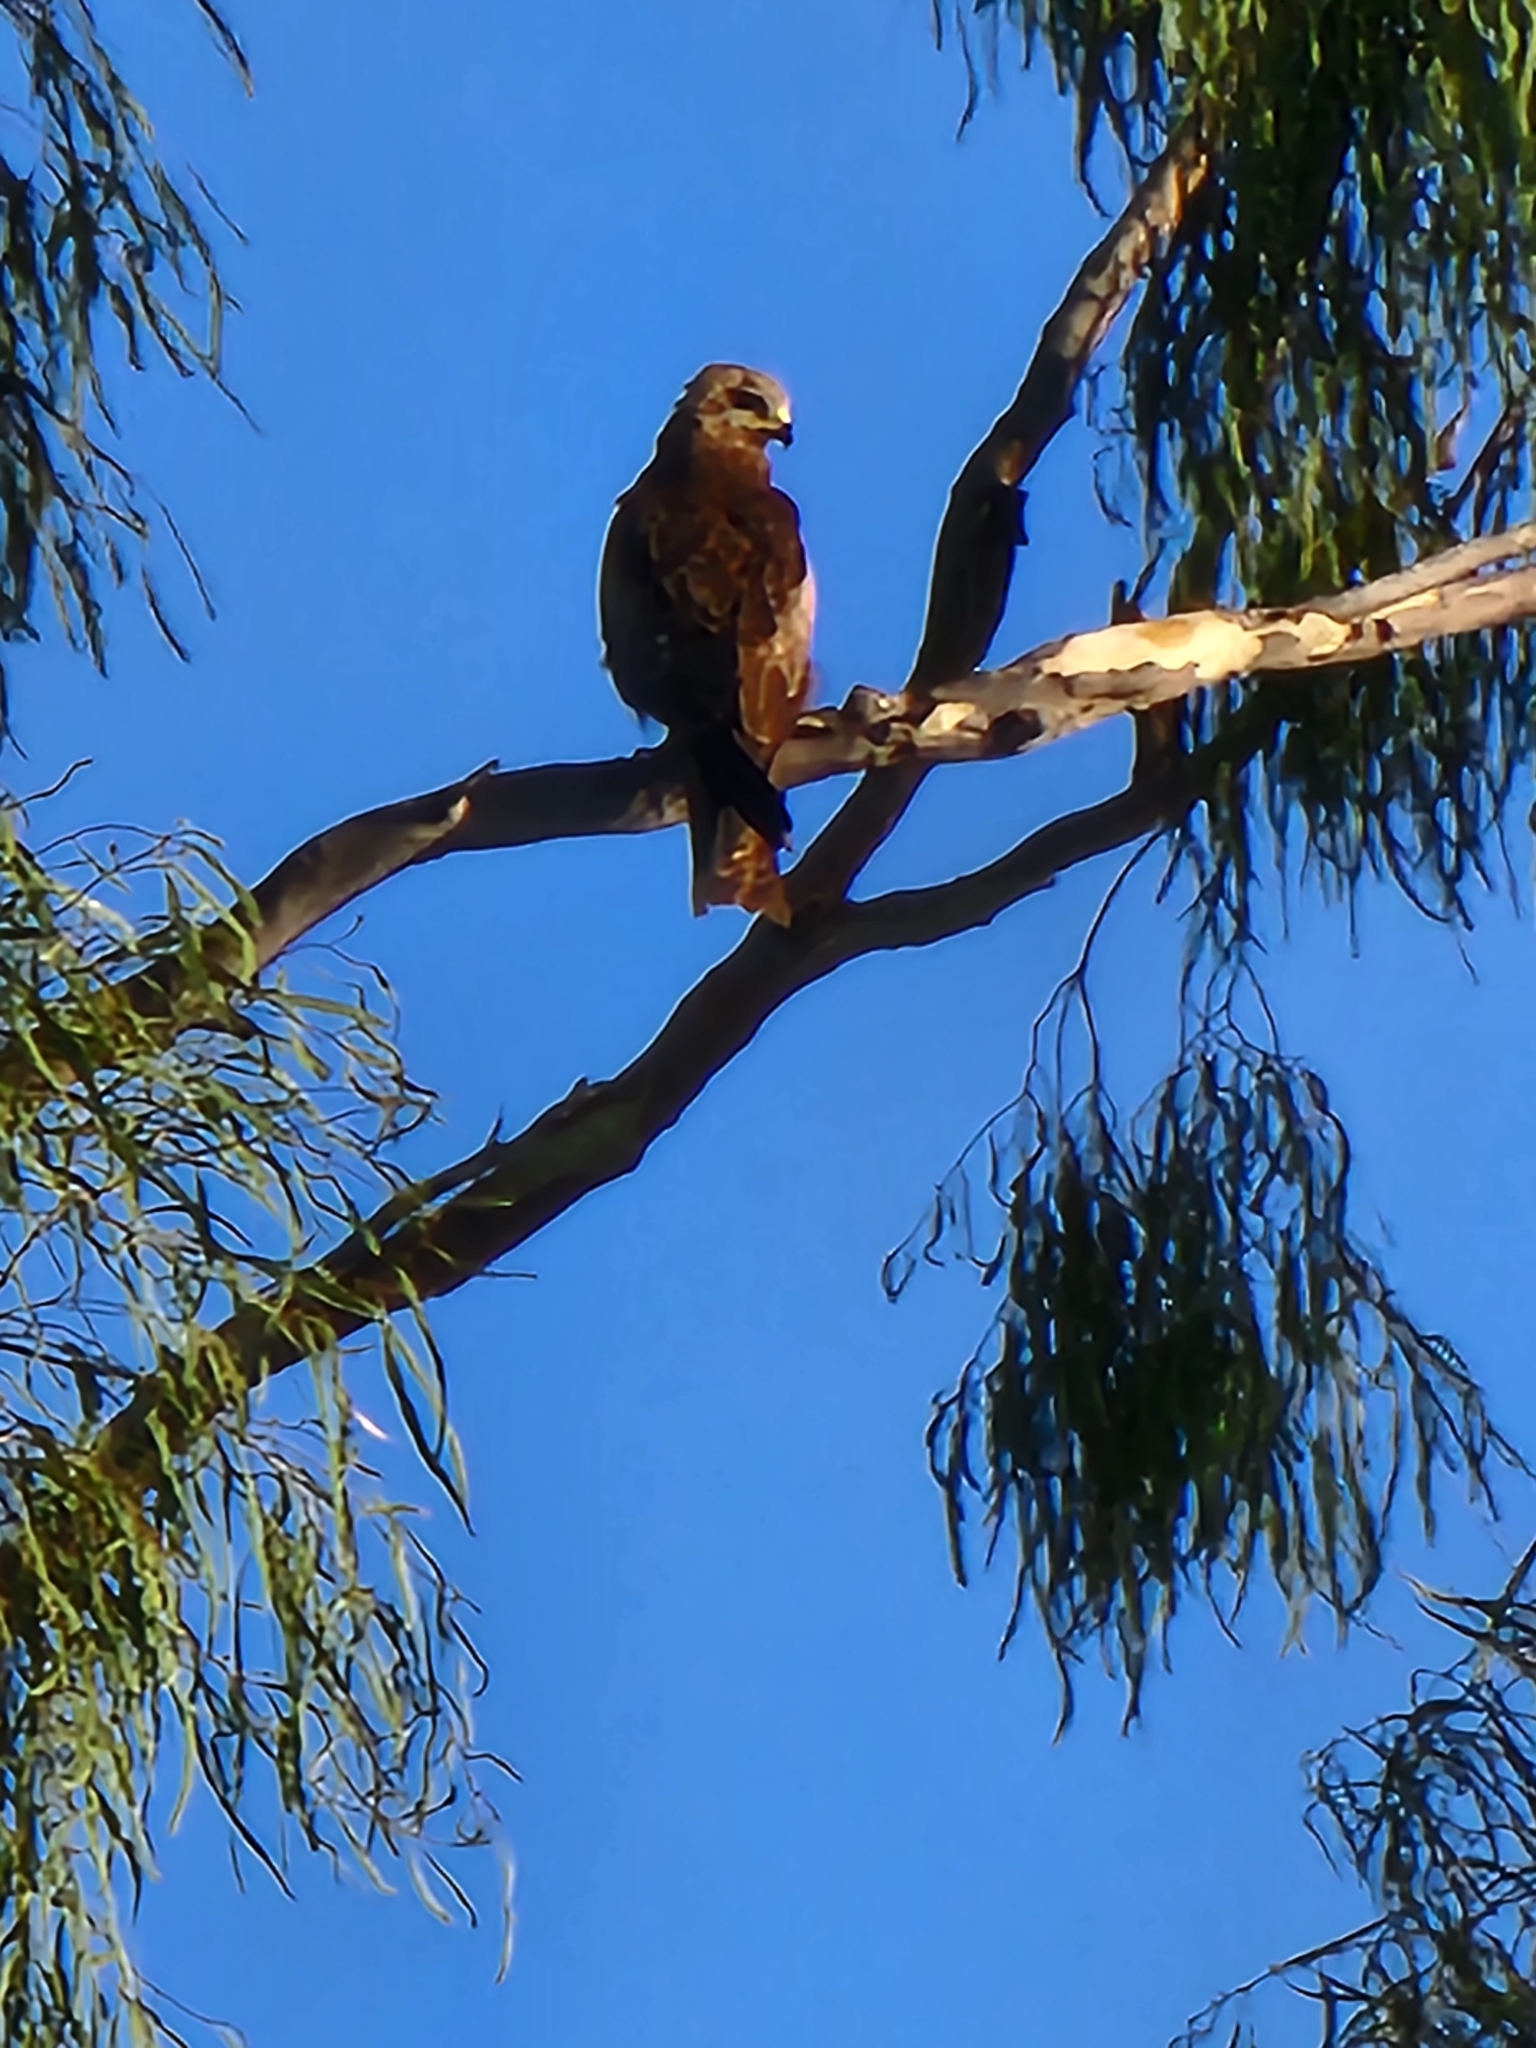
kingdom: Animalia
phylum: Chordata
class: Aves
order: Accipitriformes
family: Accipitridae
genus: Haliastur
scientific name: Haliastur sphenurus
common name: Whistling kite
